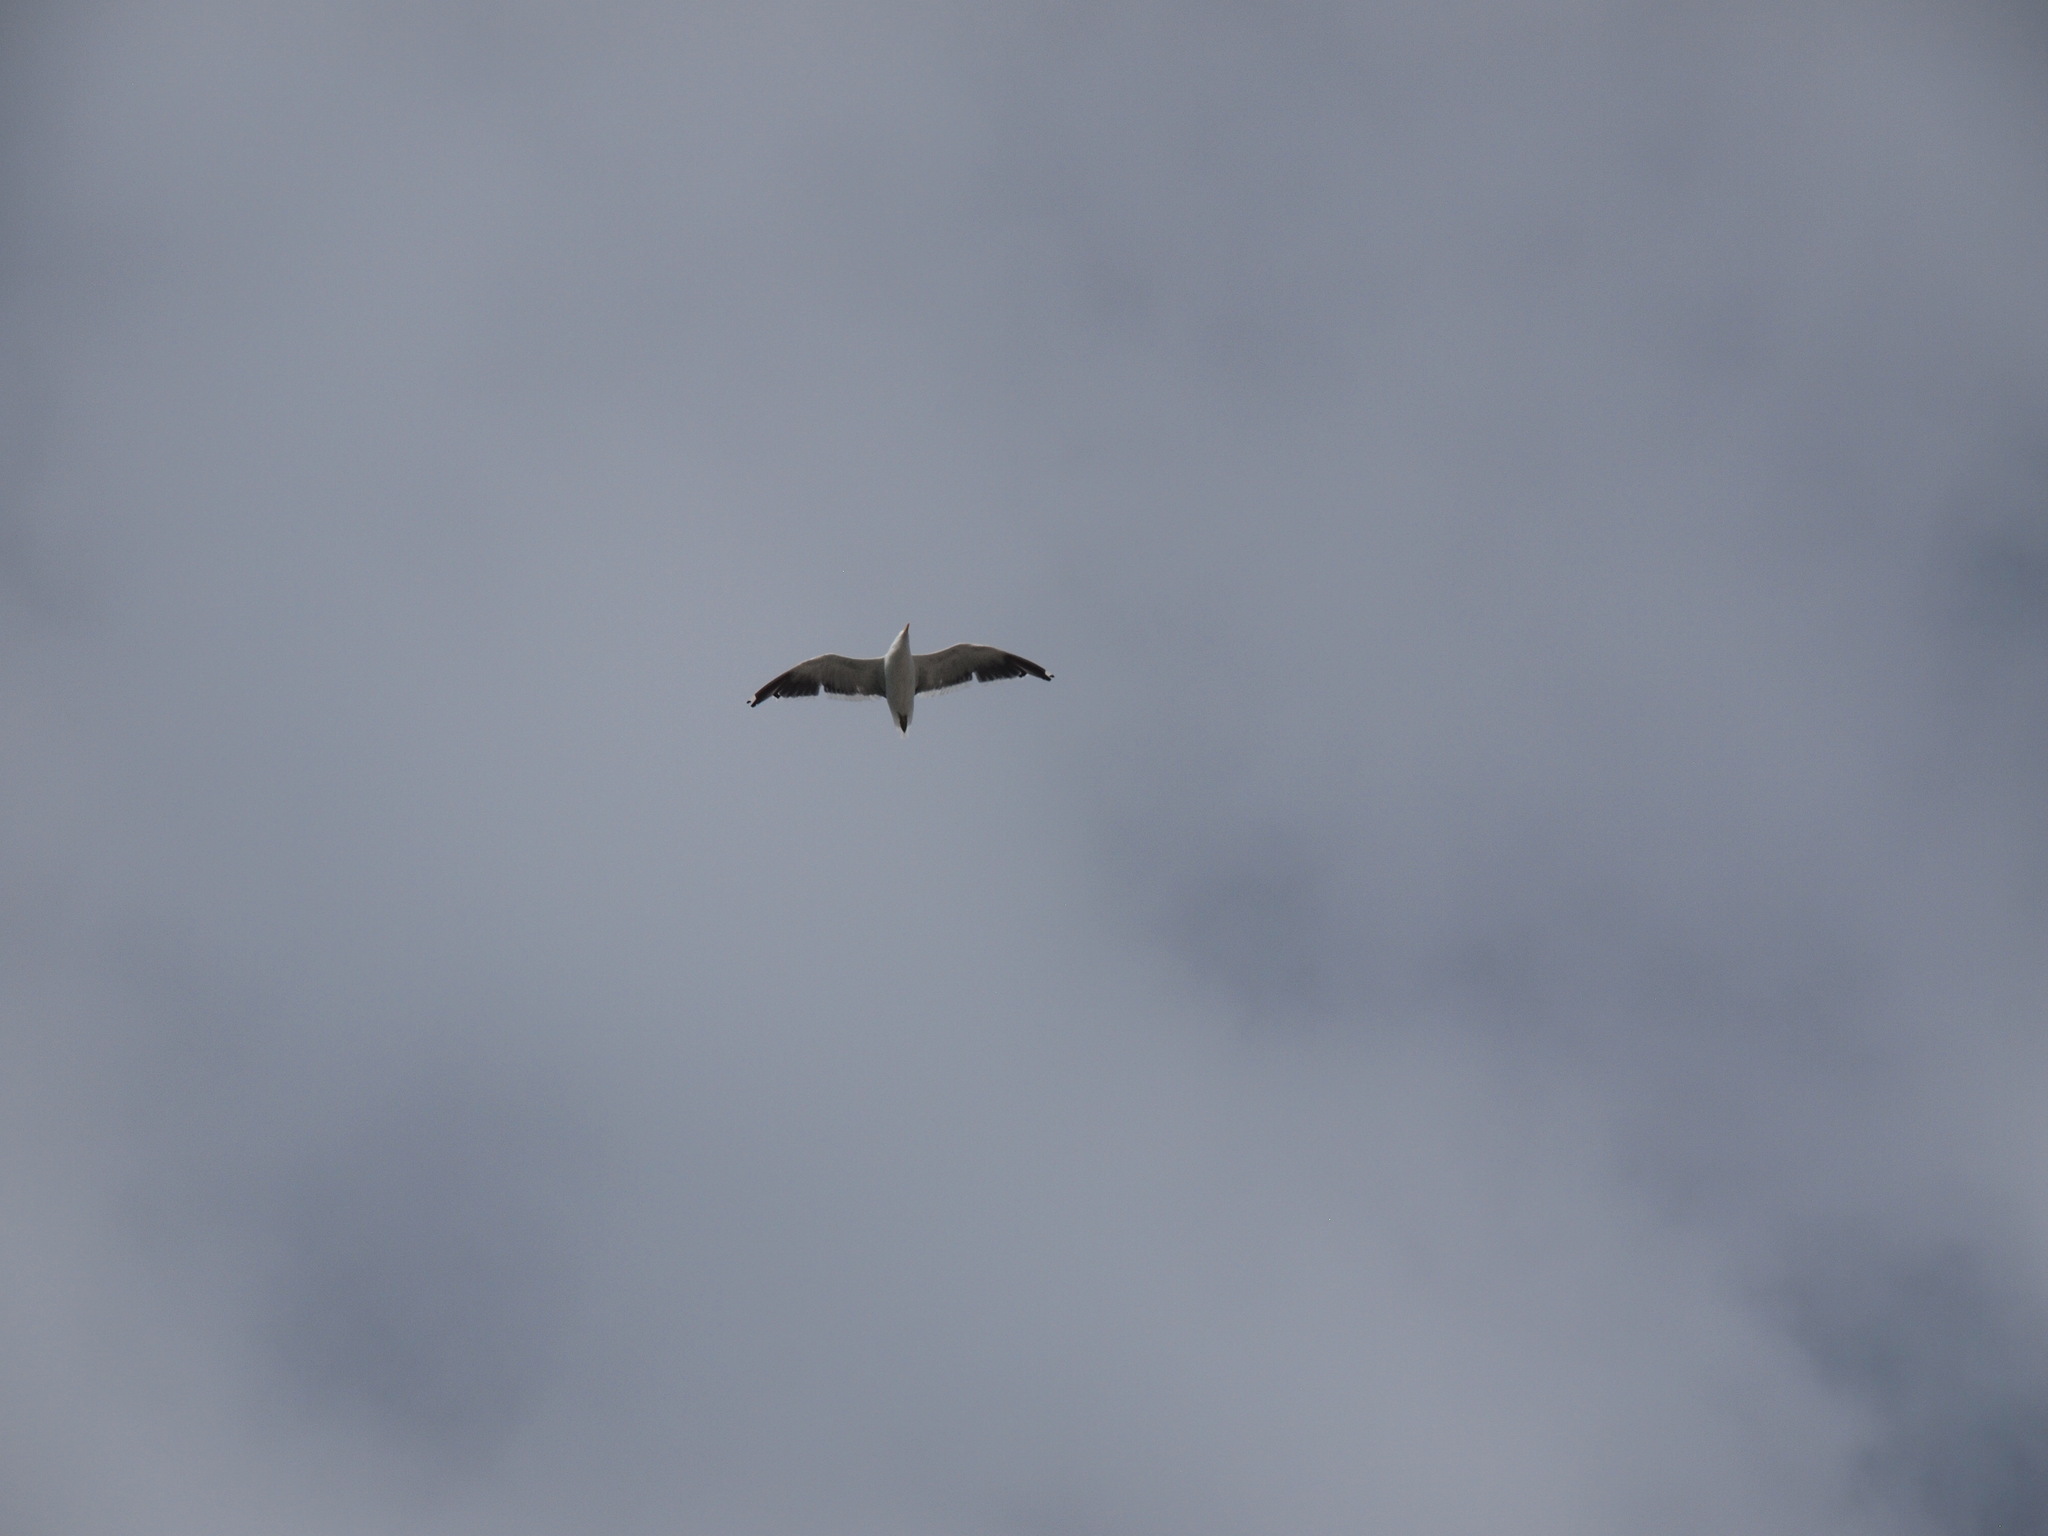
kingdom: Animalia
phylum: Chordata
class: Aves
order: Charadriiformes
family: Laridae
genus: Larus
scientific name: Larus dominicanus
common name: Kelp gull
